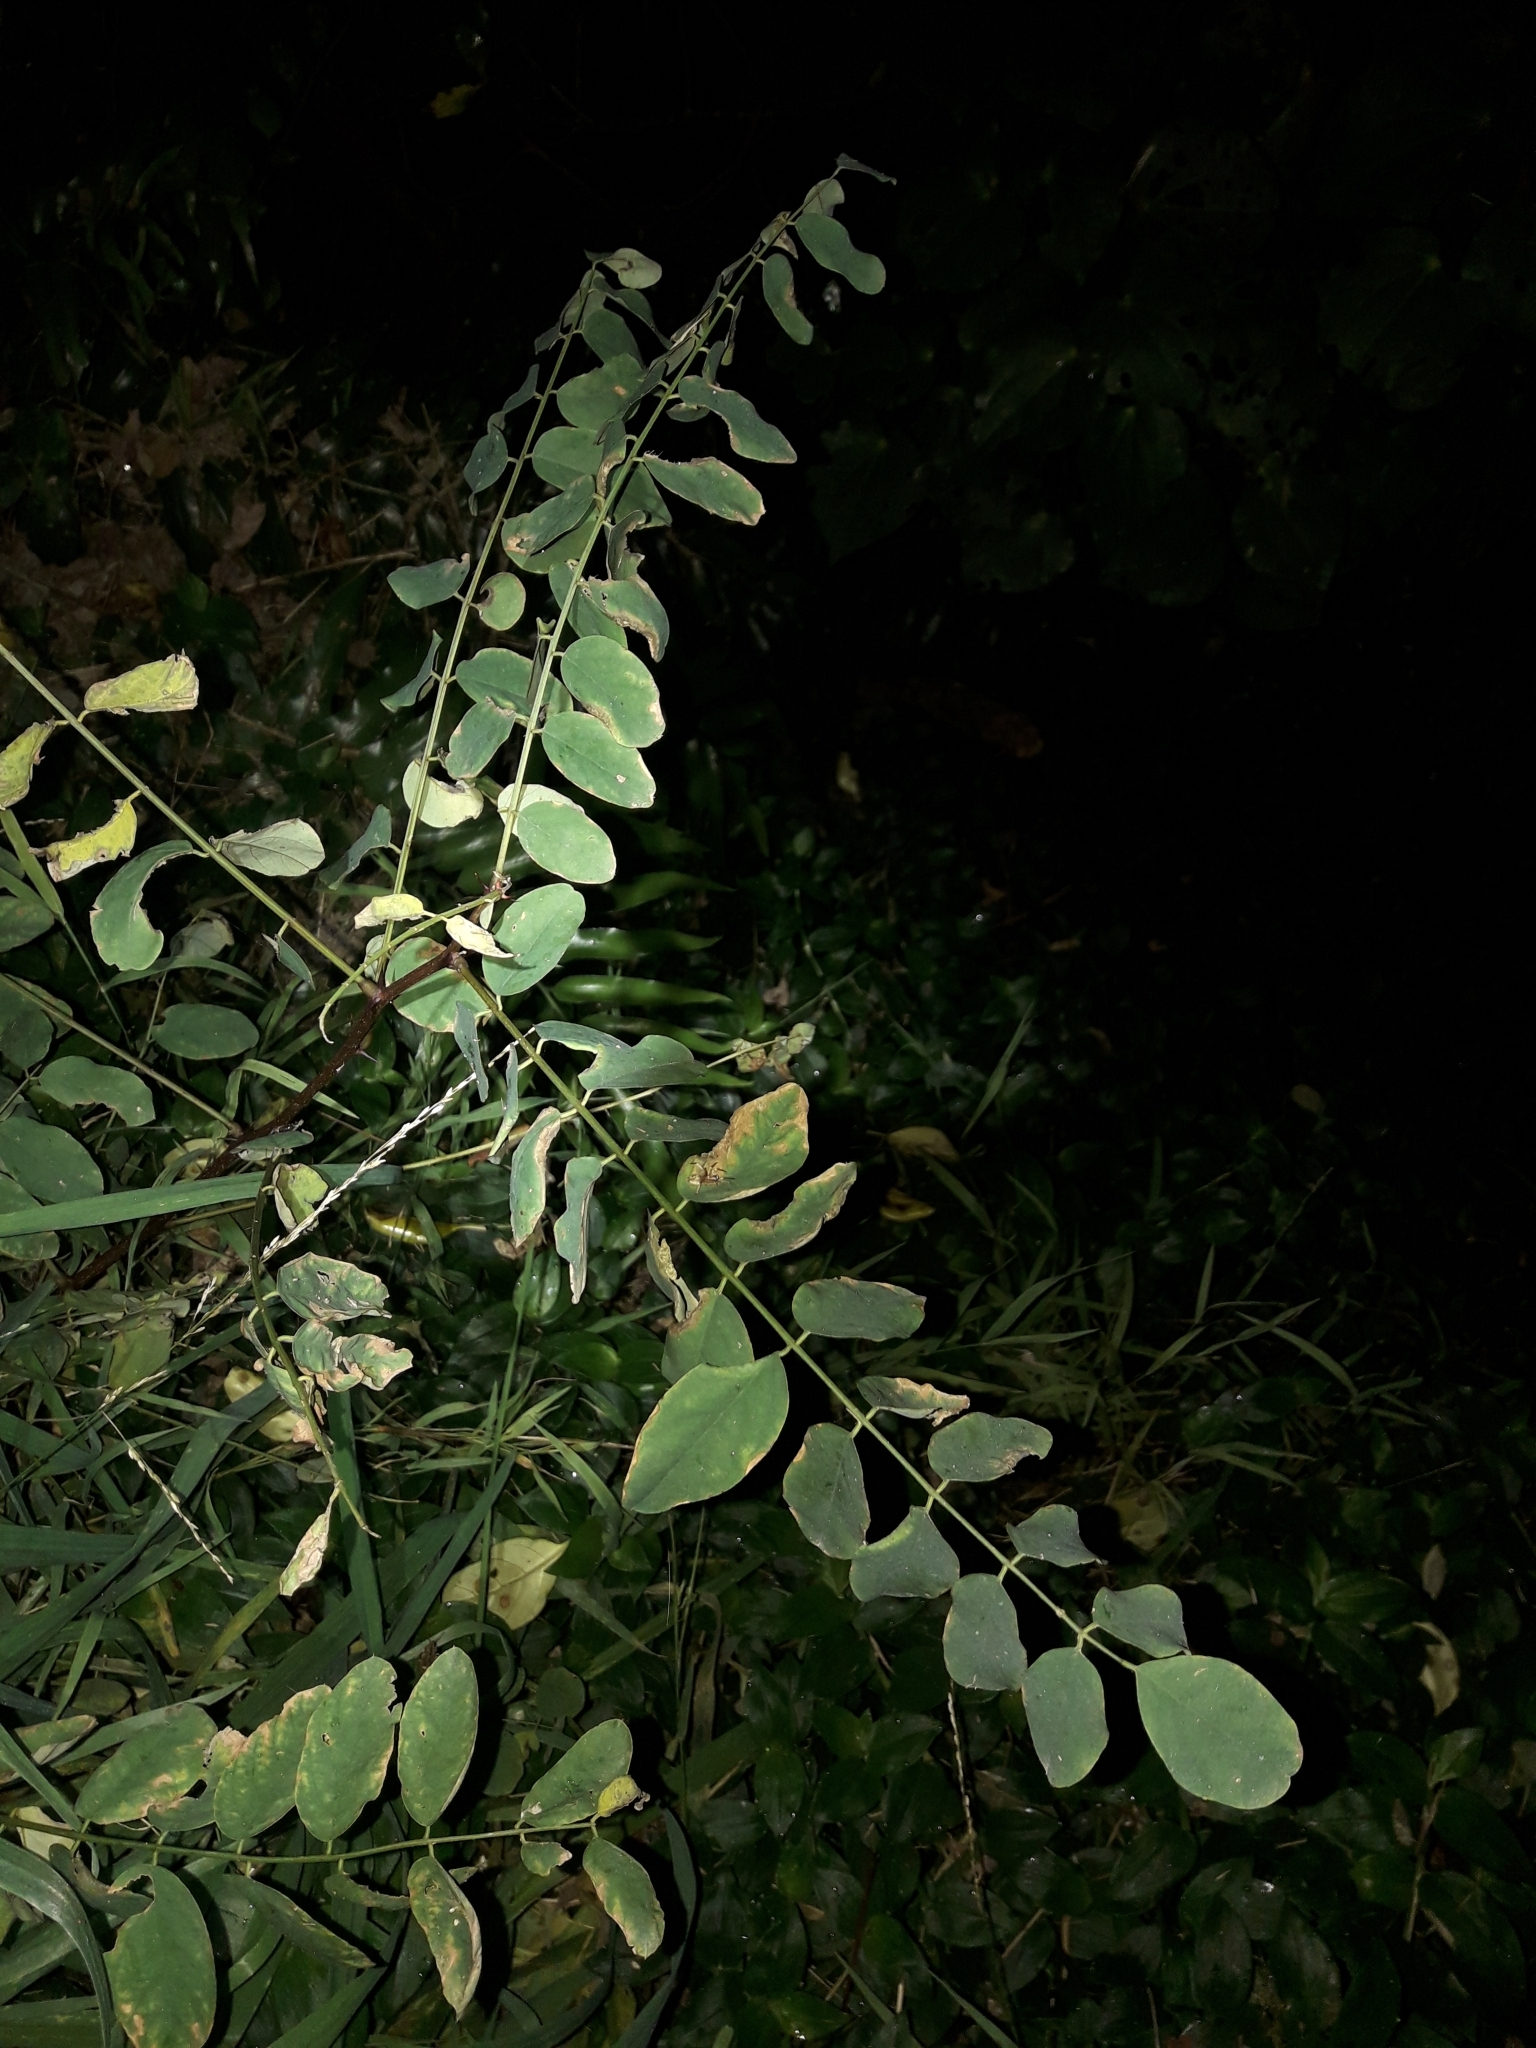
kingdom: Plantae
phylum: Tracheophyta
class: Magnoliopsida
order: Fabales
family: Fabaceae
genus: Robinia
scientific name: Robinia pseudoacacia
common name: Black locust
